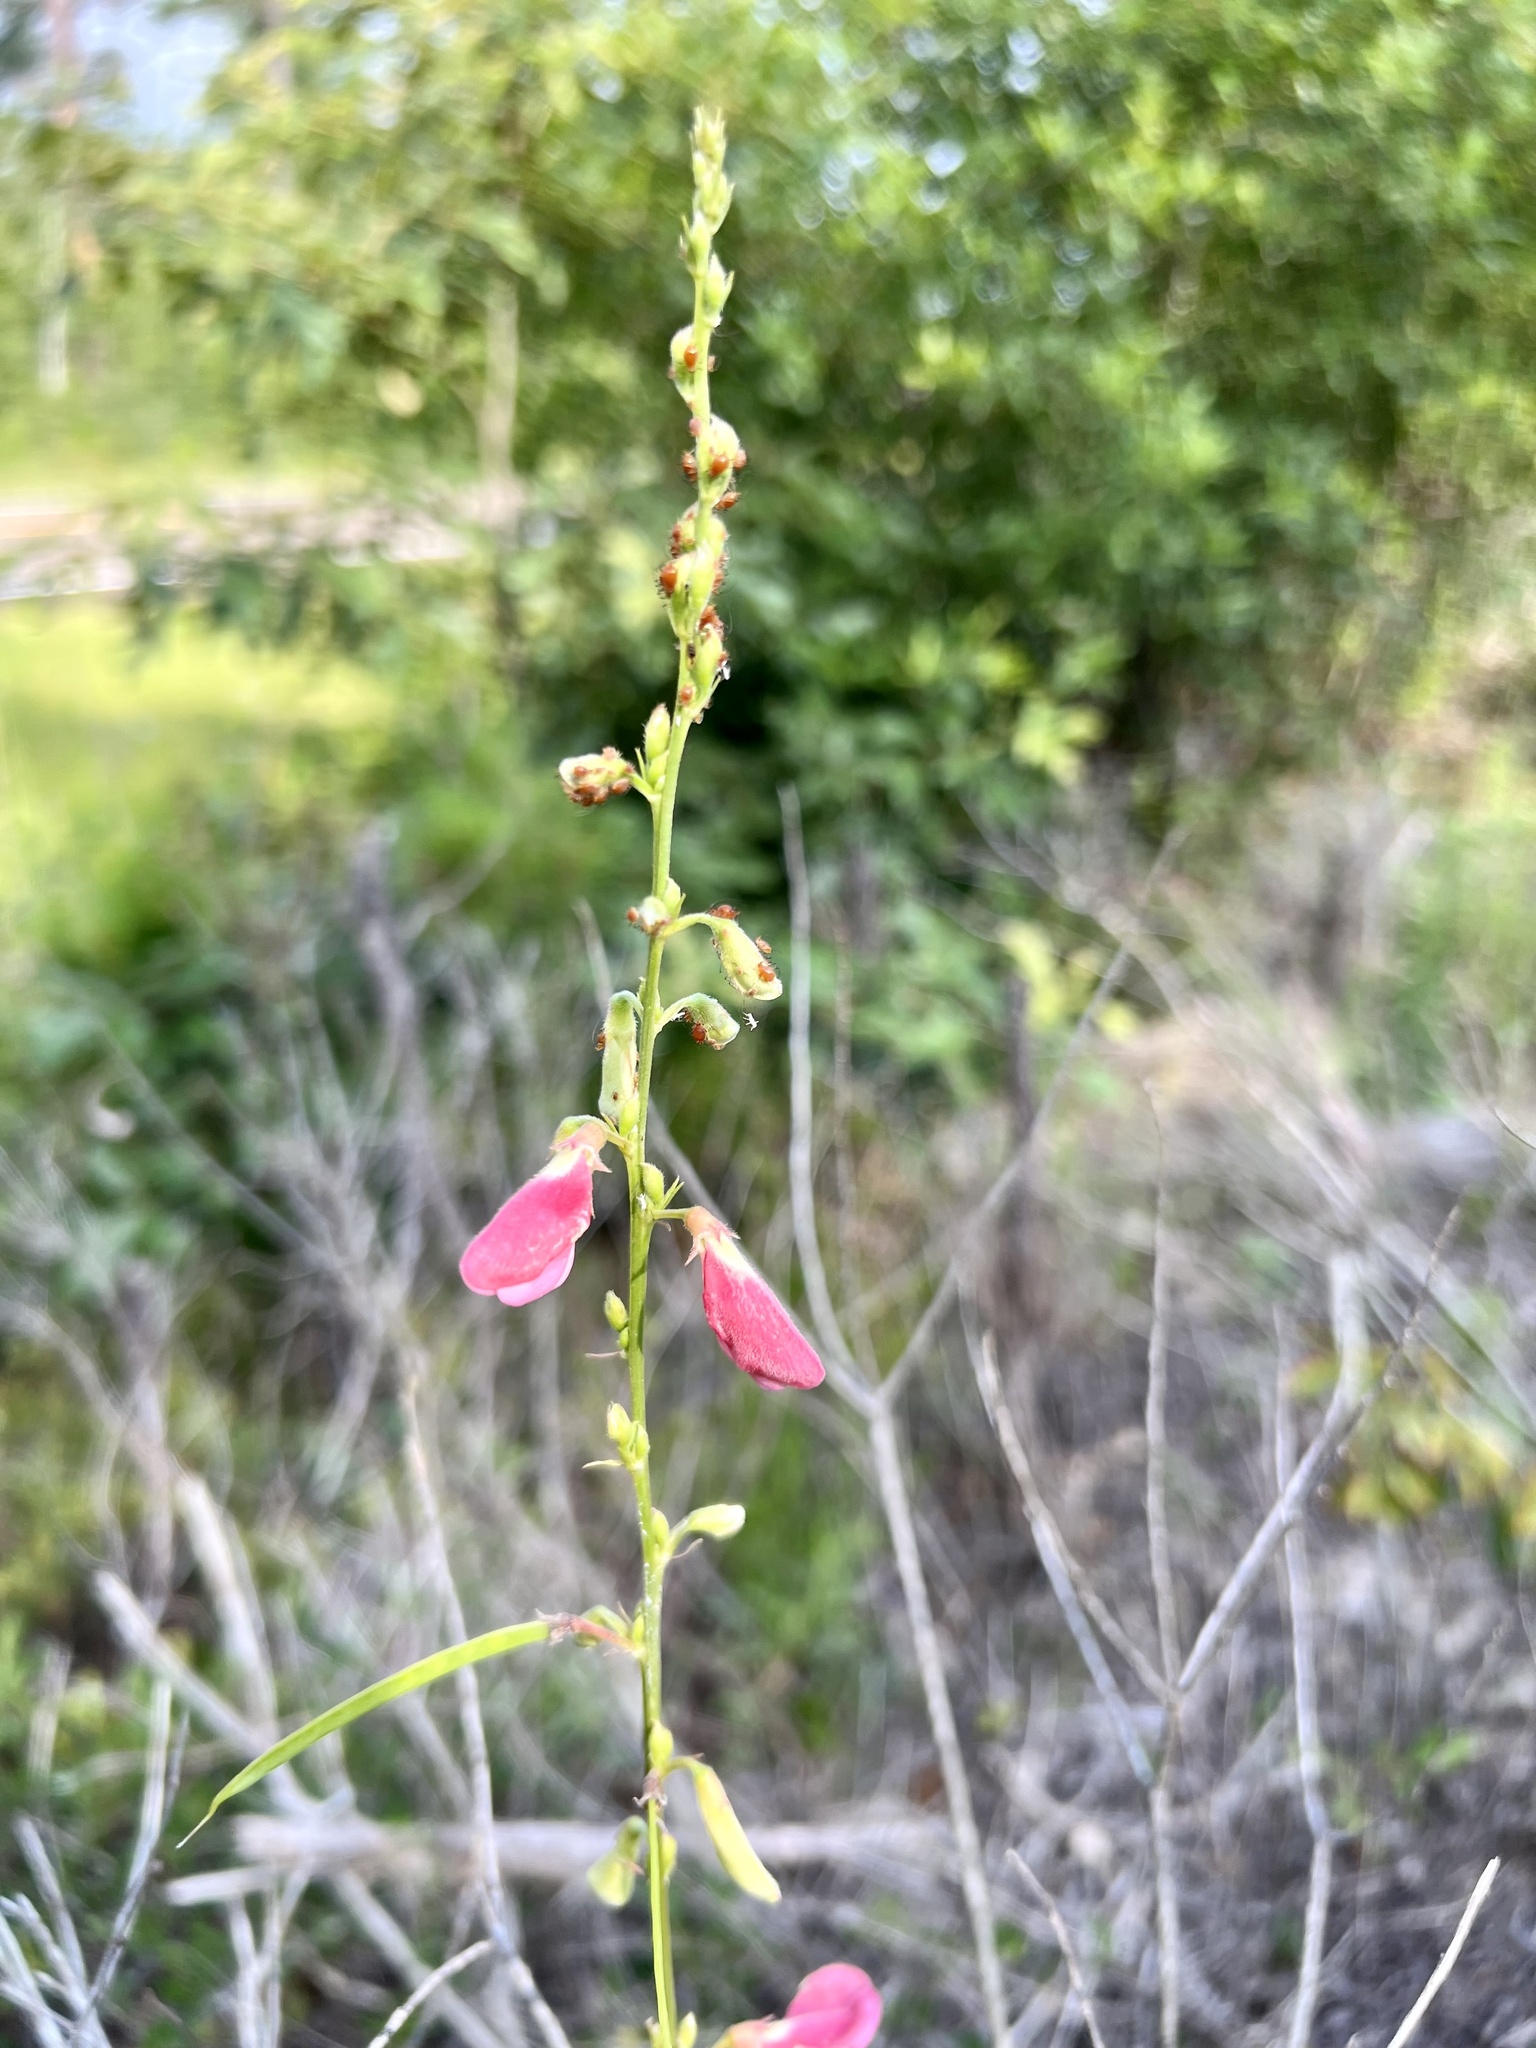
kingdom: Plantae
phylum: Tracheophyta
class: Magnoliopsida
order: Fabales
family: Fabaceae
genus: Tephrosia
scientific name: Tephrosia onobrychoides
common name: Multi-bloom hoary-pea
